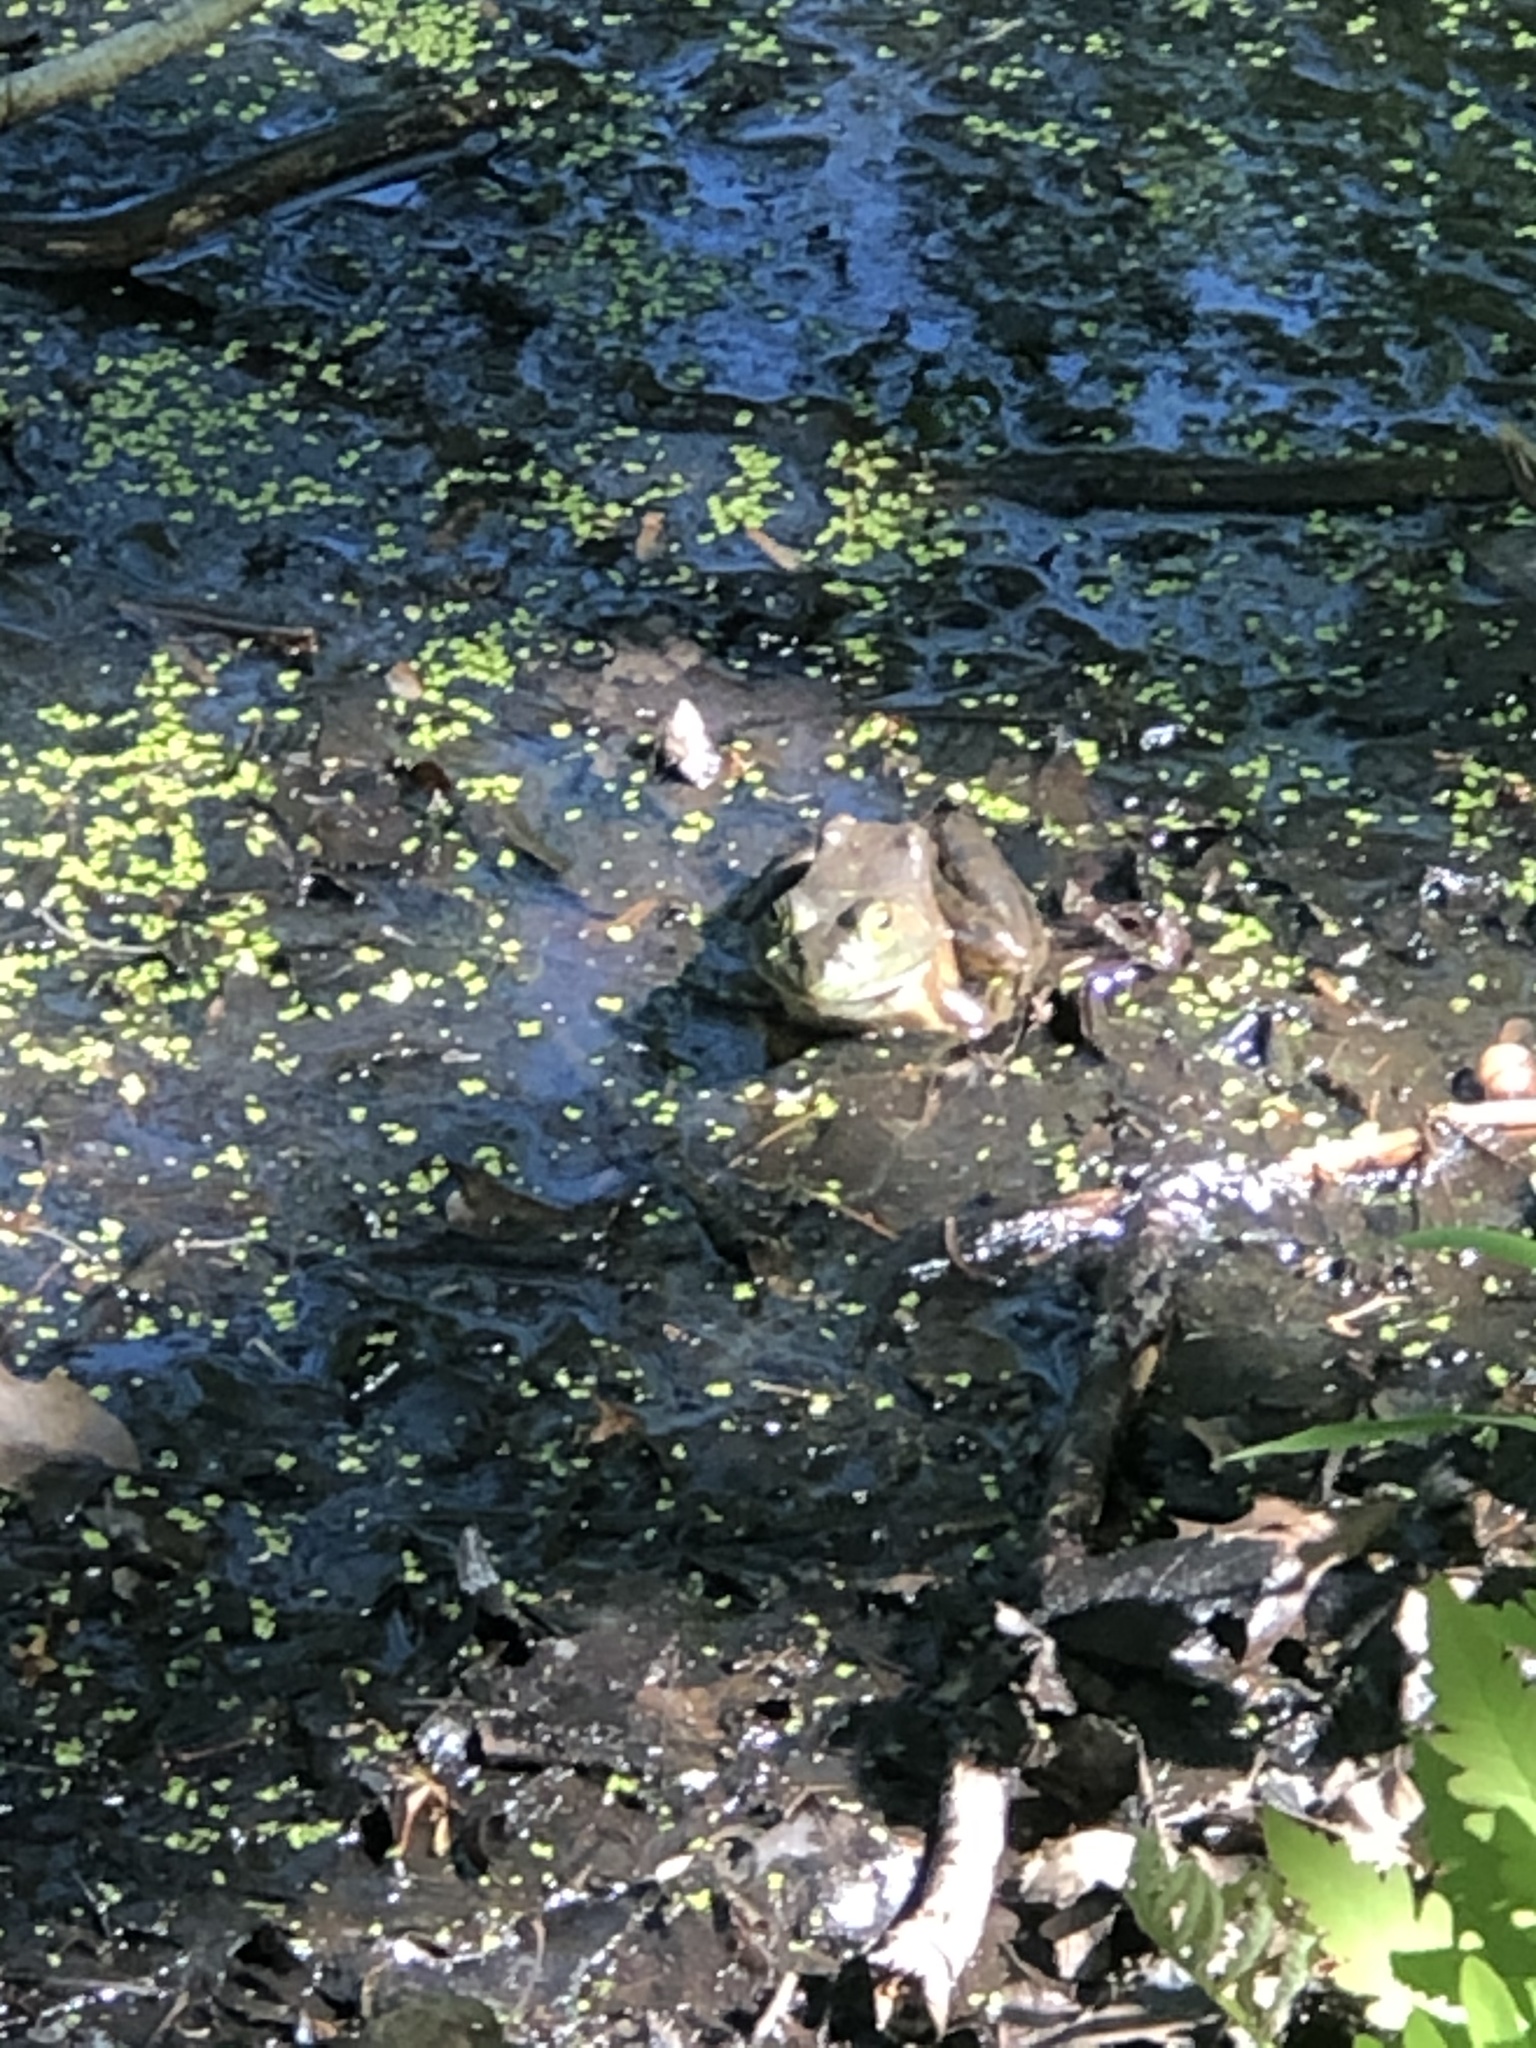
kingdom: Animalia
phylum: Chordata
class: Amphibia
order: Anura
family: Ranidae
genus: Lithobates
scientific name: Lithobates catesbeianus
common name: American bullfrog
